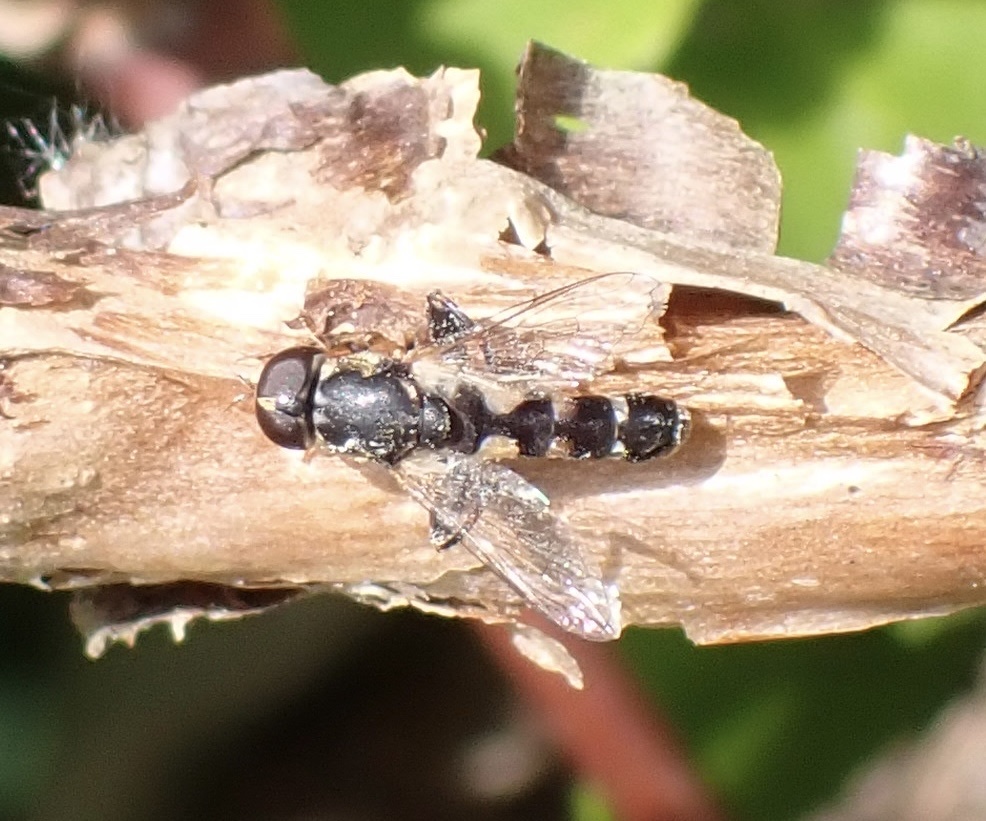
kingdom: Animalia
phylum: Arthropoda
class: Insecta
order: Diptera
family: Syrphidae
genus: Syritta
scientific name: Syritta pipiens
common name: Hover fly
